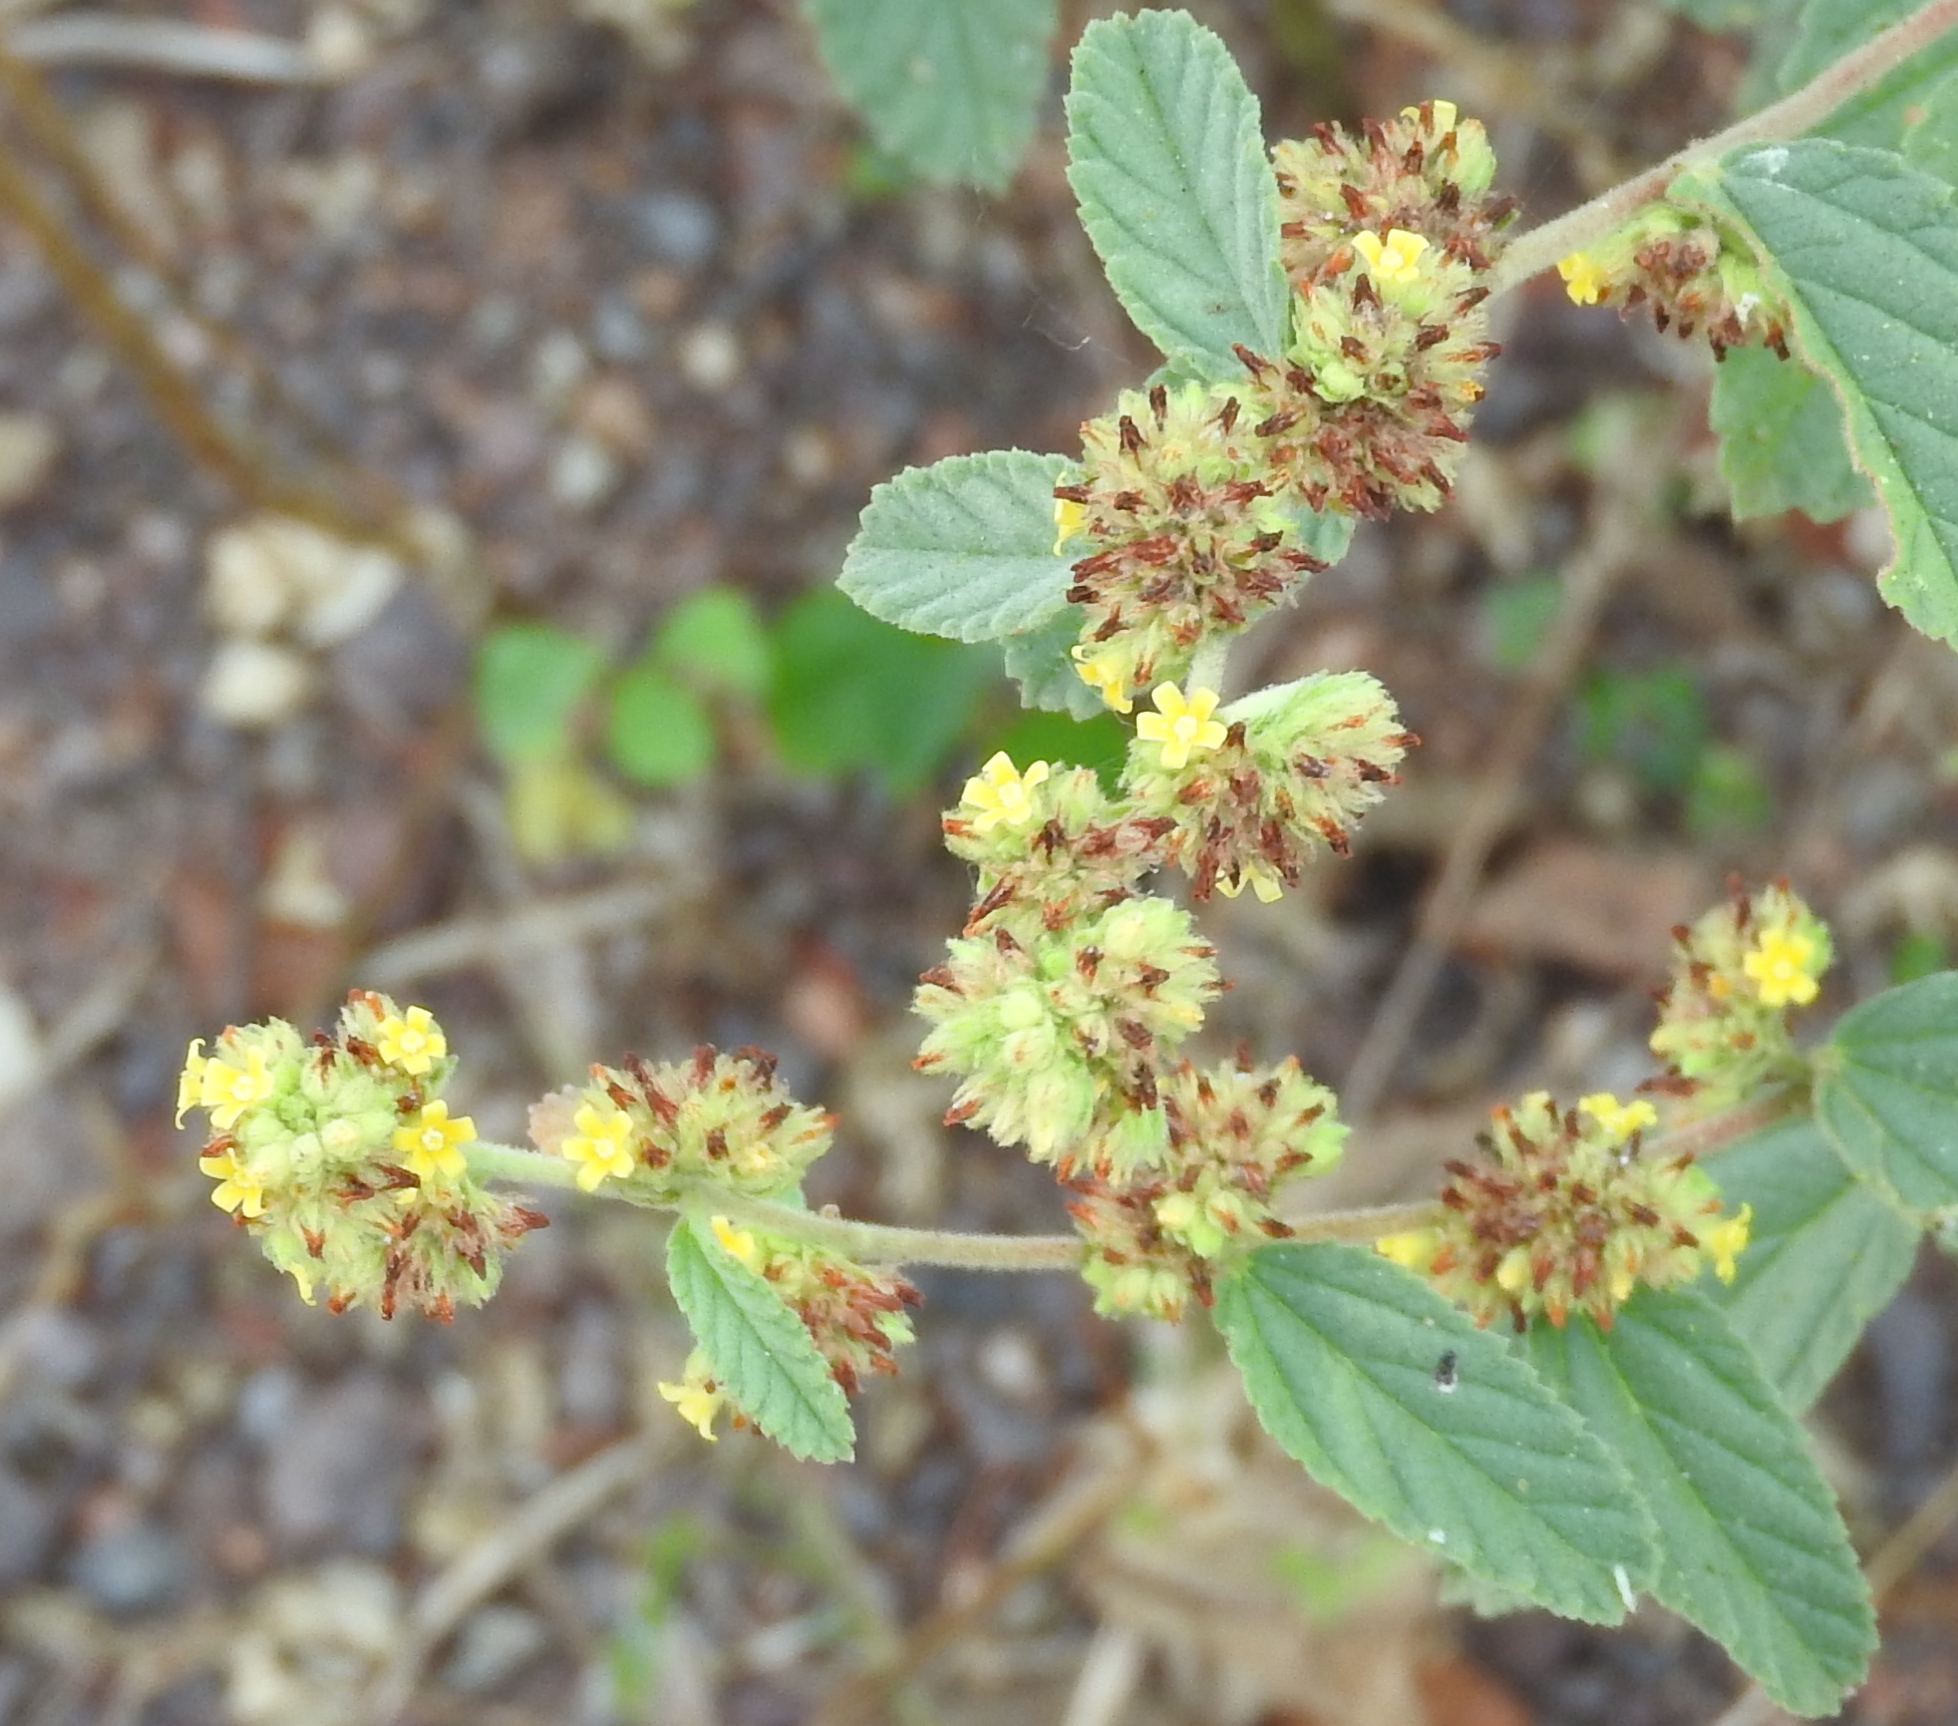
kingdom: Plantae
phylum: Tracheophyta
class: Magnoliopsida
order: Malvales
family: Malvaceae
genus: Waltheria
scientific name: Waltheria indica
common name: Leather-coat
